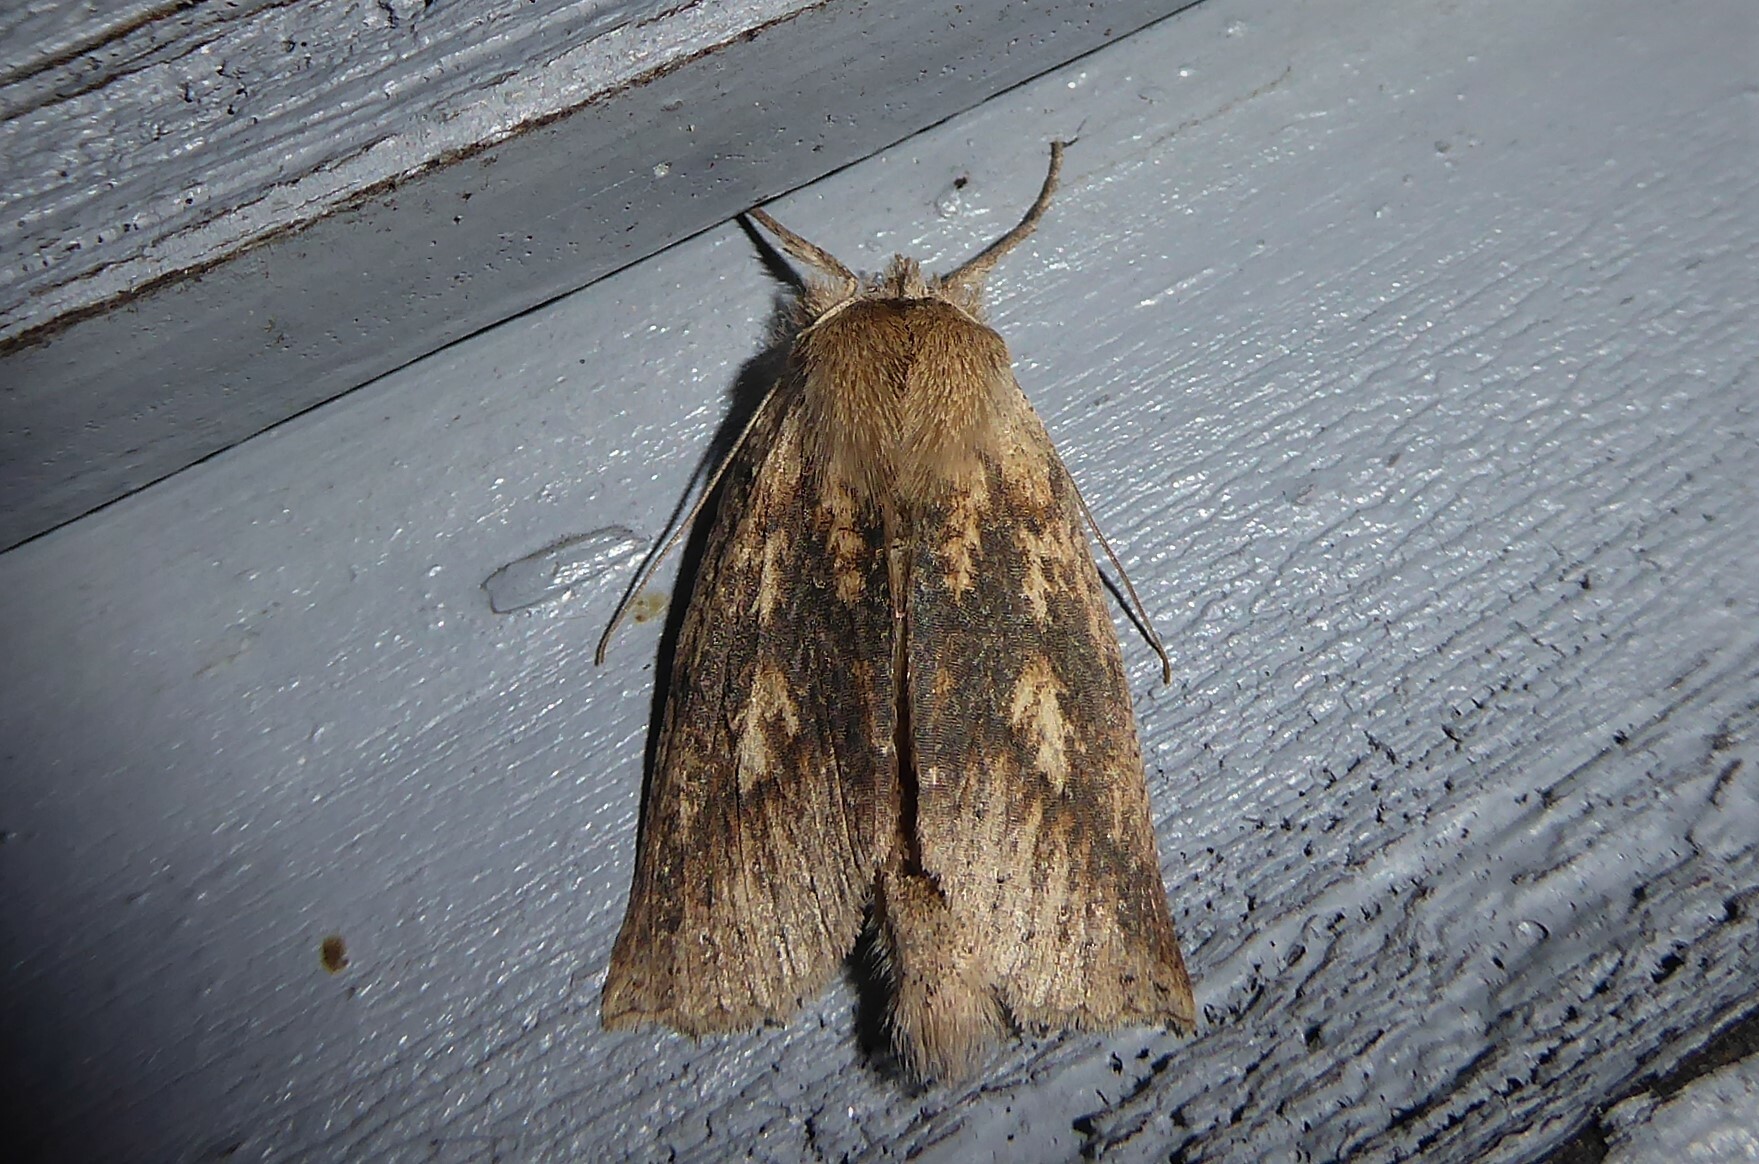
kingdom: Animalia
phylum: Arthropoda
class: Insecta
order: Lepidoptera
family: Geometridae
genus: Declana
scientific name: Declana leptomera
